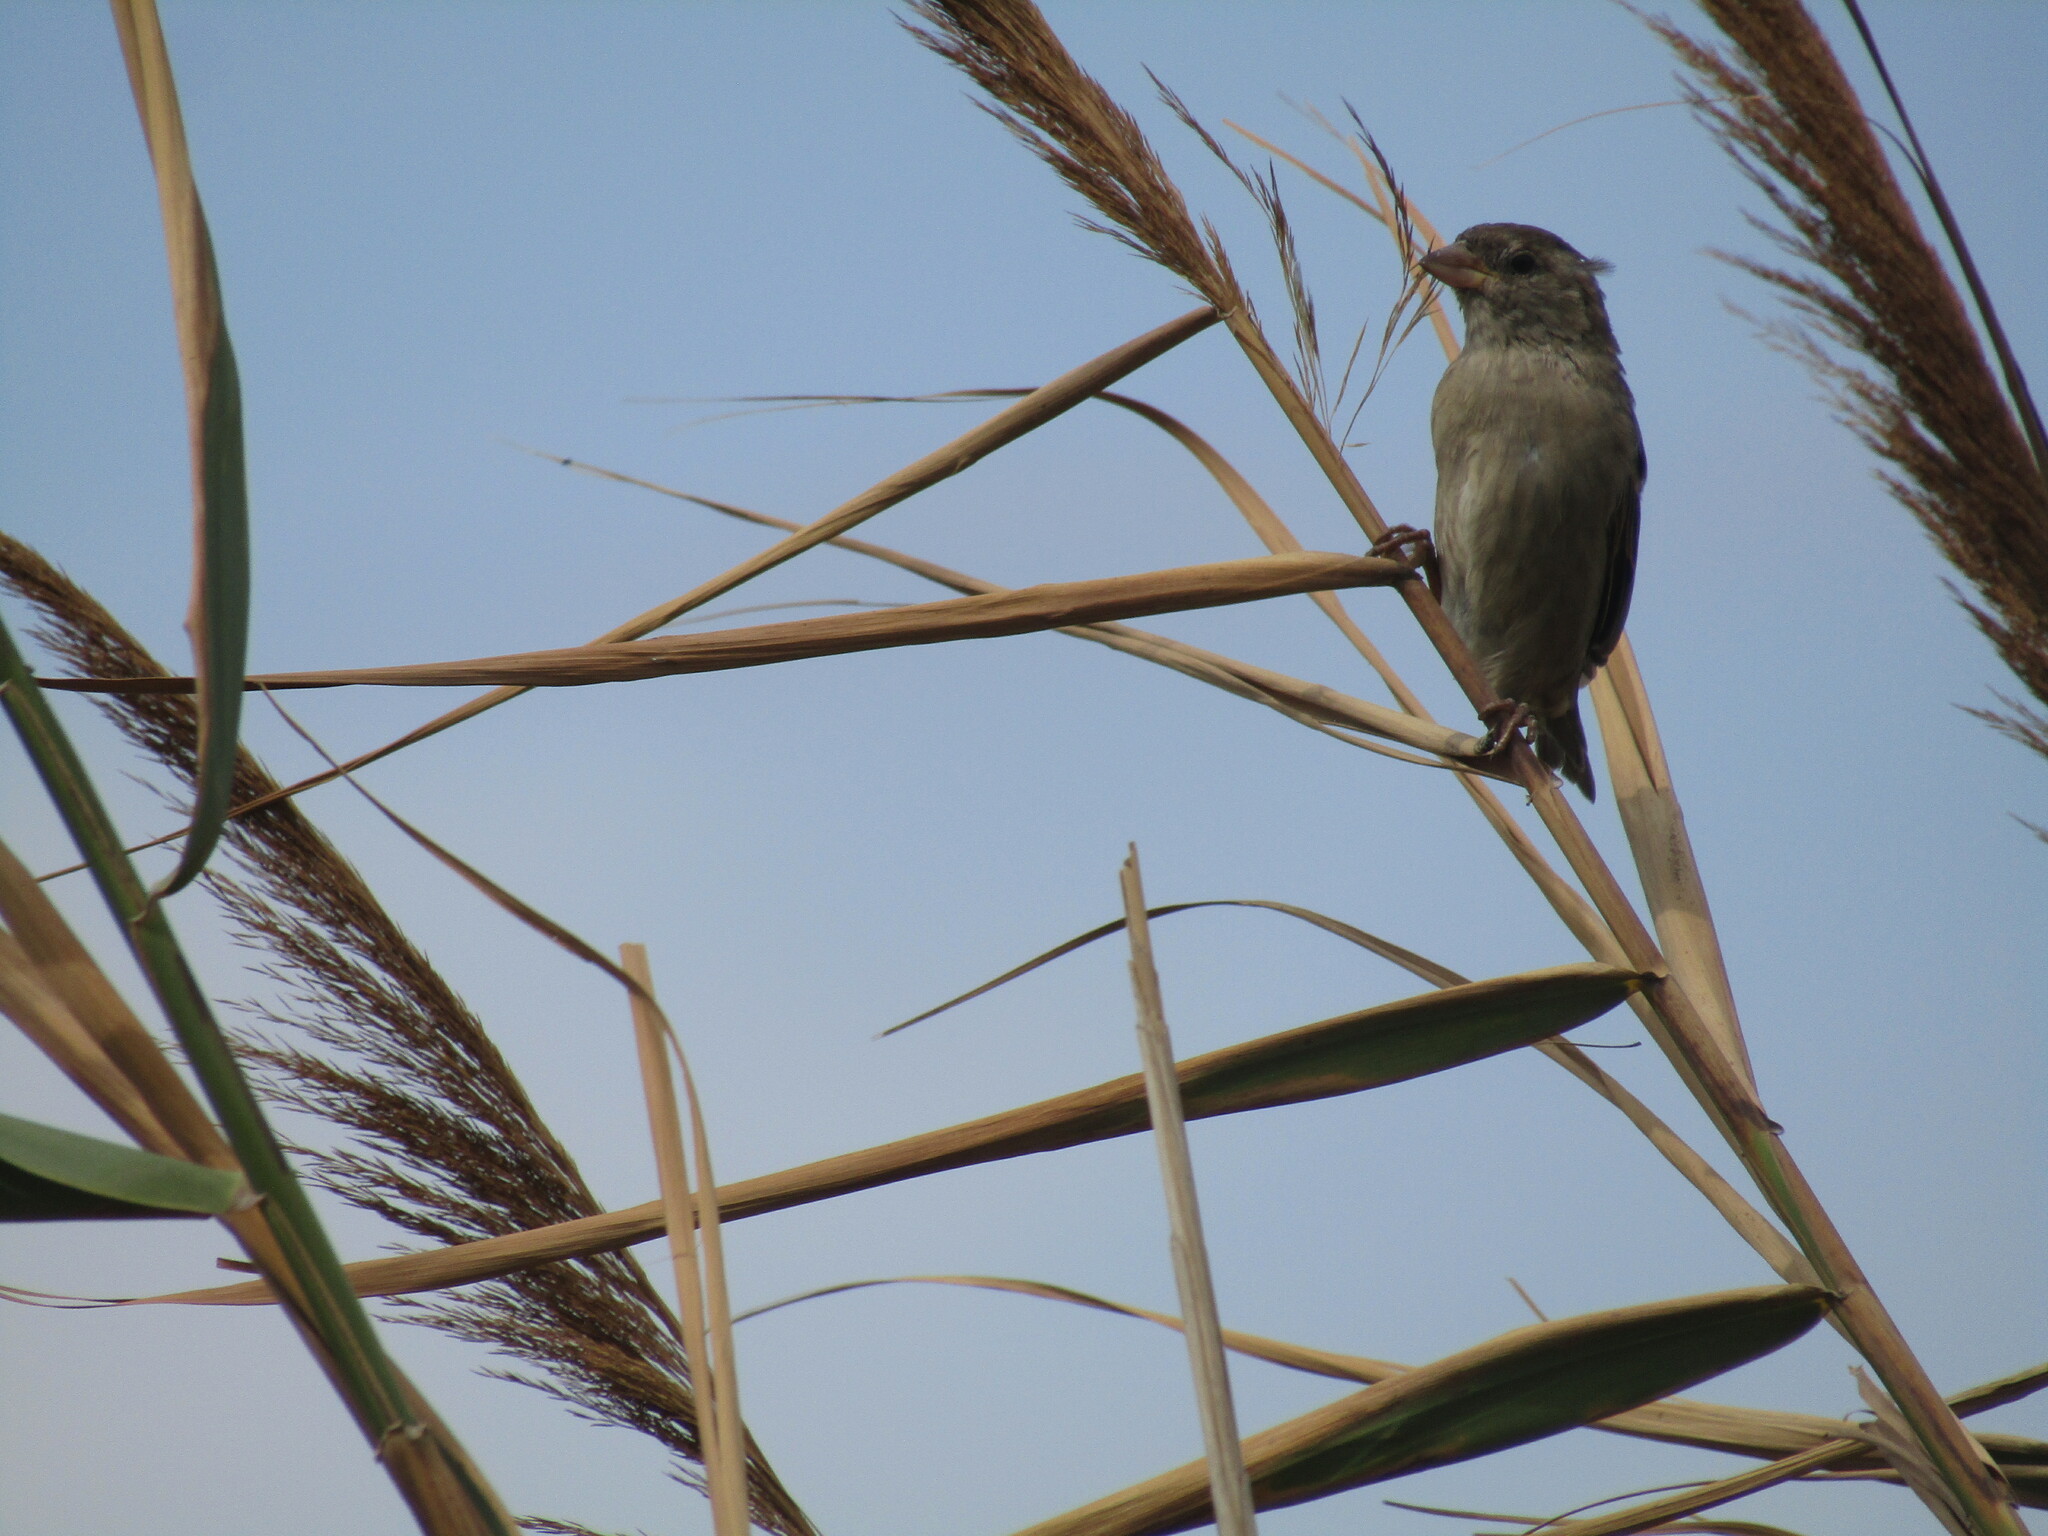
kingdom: Animalia
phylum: Chordata
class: Aves
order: Passeriformes
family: Passeridae
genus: Passer
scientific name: Passer domesticus
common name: House sparrow
